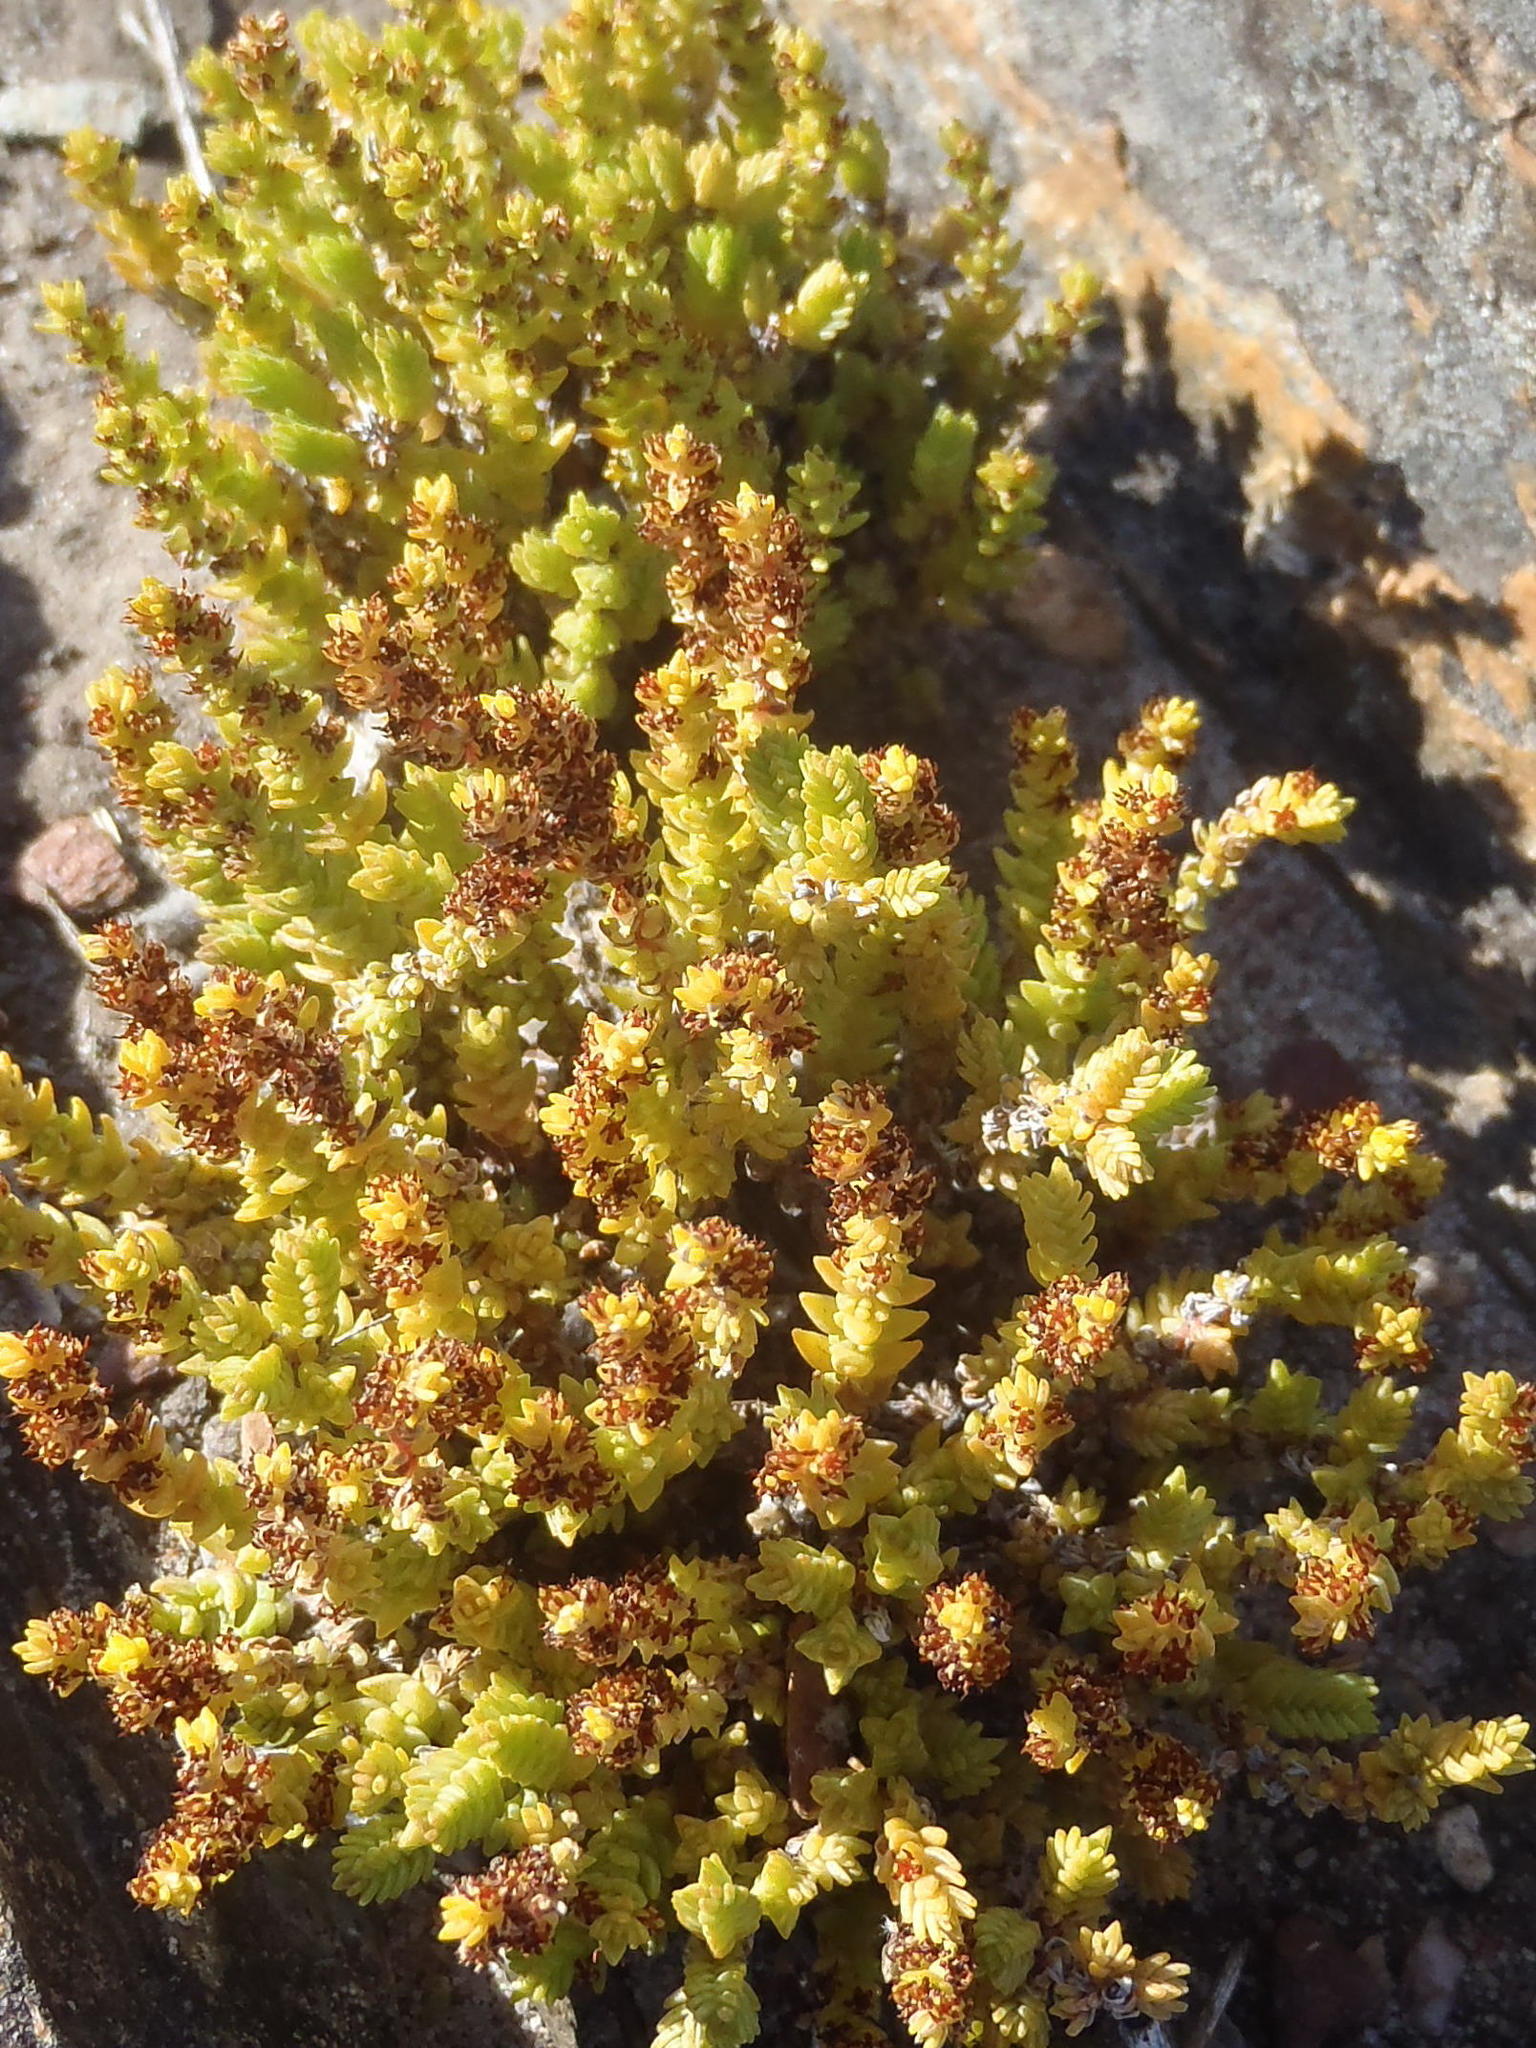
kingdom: Plantae
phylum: Tracheophyta
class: Magnoliopsida
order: Saxifragales
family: Crassulaceae
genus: Crassula
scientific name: Crassula muscosa
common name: Toy-cypress
